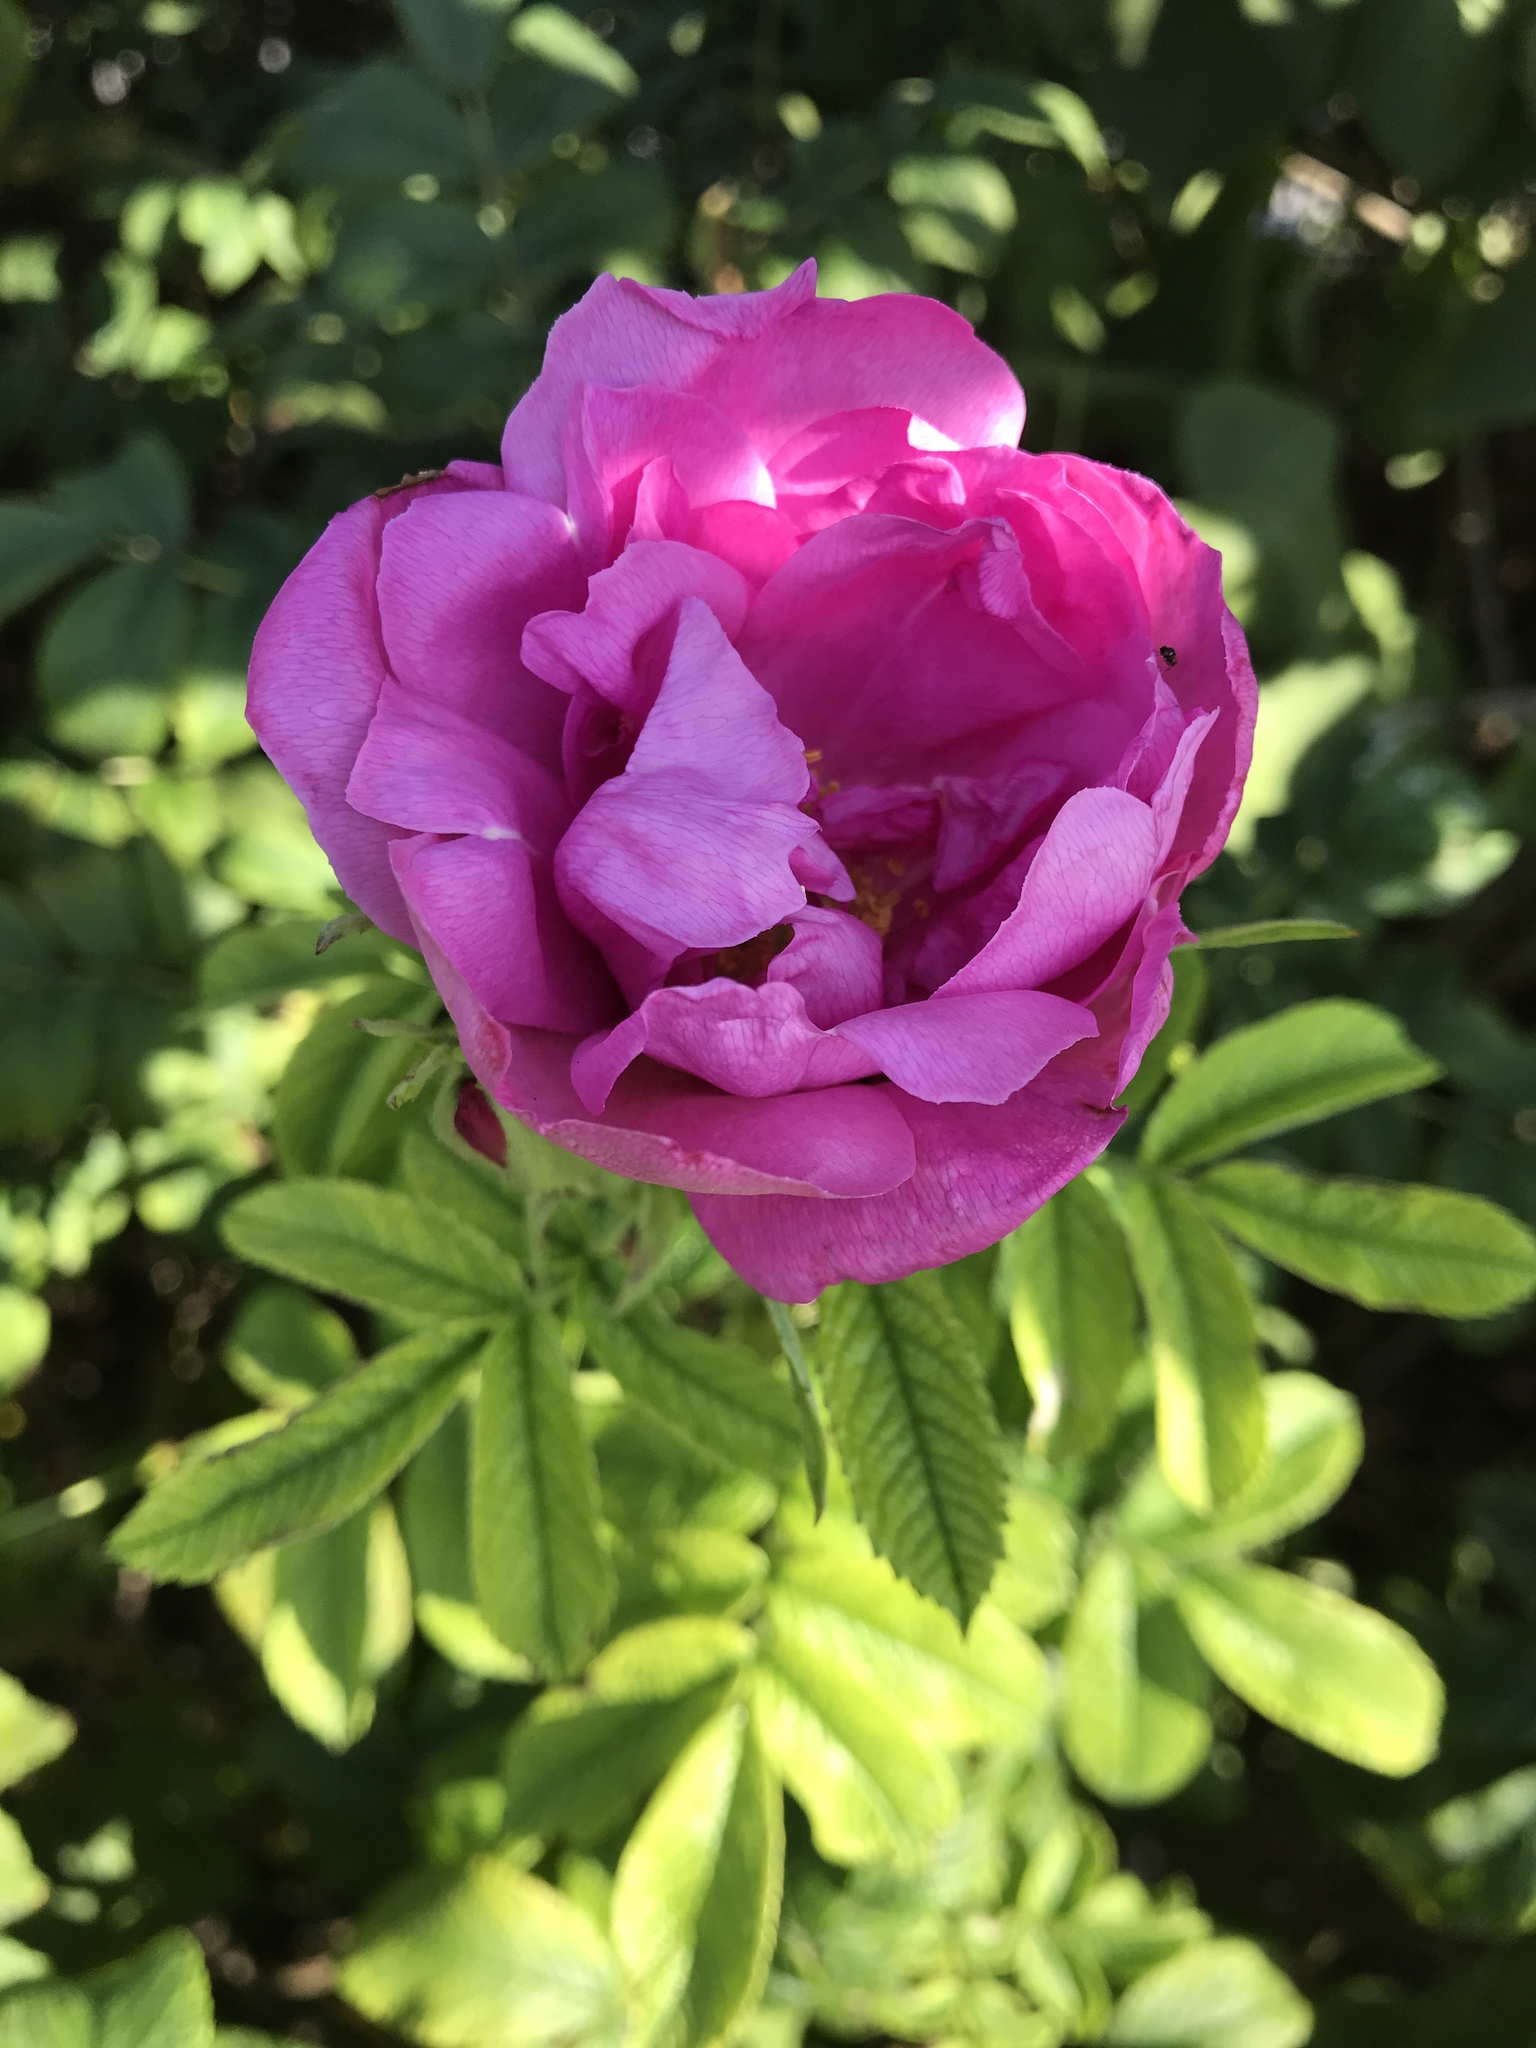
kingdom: Plantae
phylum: Tracheophyta
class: Magnoliopsida
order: Rosales
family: Rosaceae
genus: Rosa
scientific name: Rosa rugosa
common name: Japanese rose
